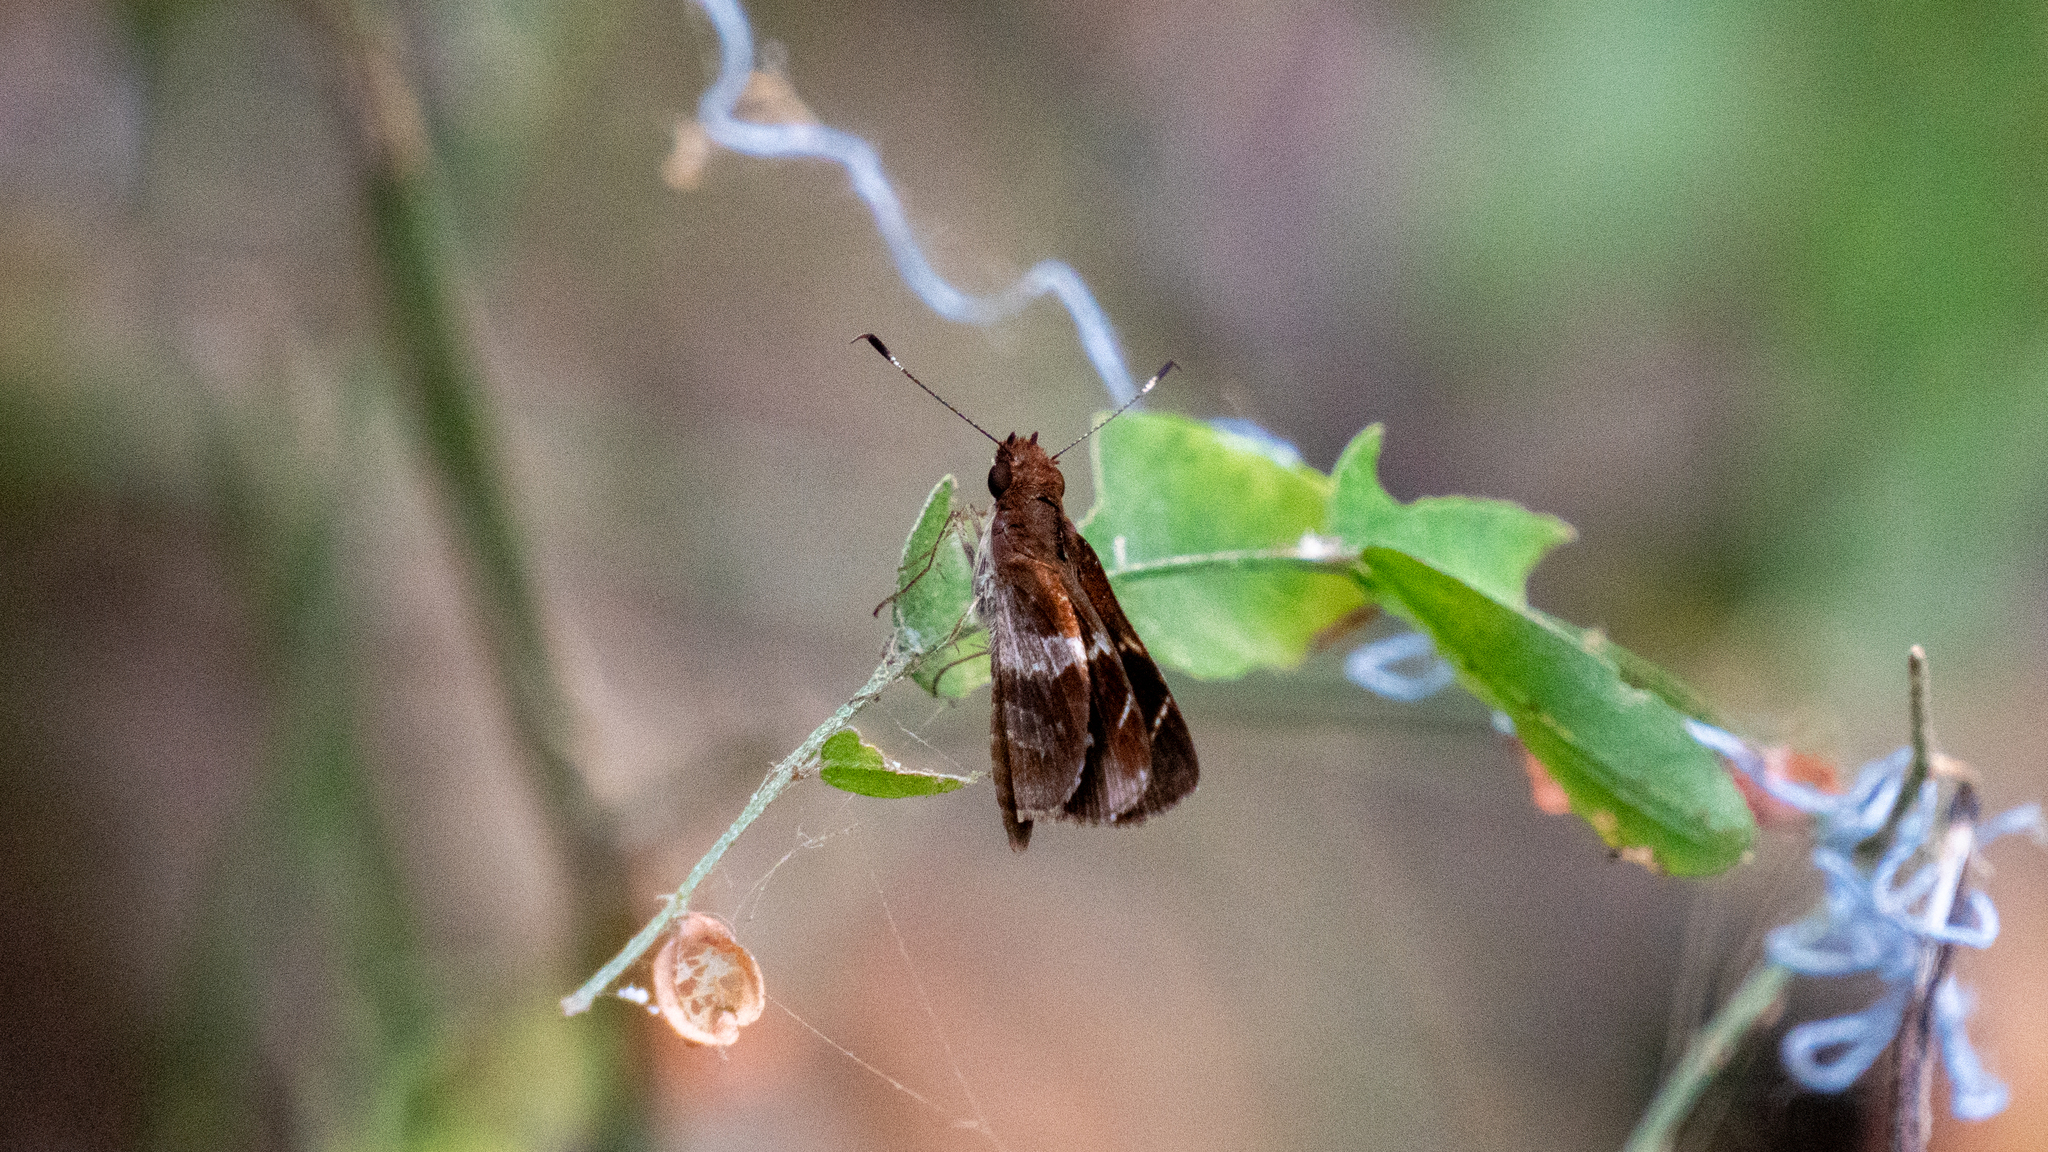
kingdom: Animalia
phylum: Arthropoda
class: Insecta
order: Lepidoptera
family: Hesperiidae
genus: Moeris
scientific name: Moeris crispinus
